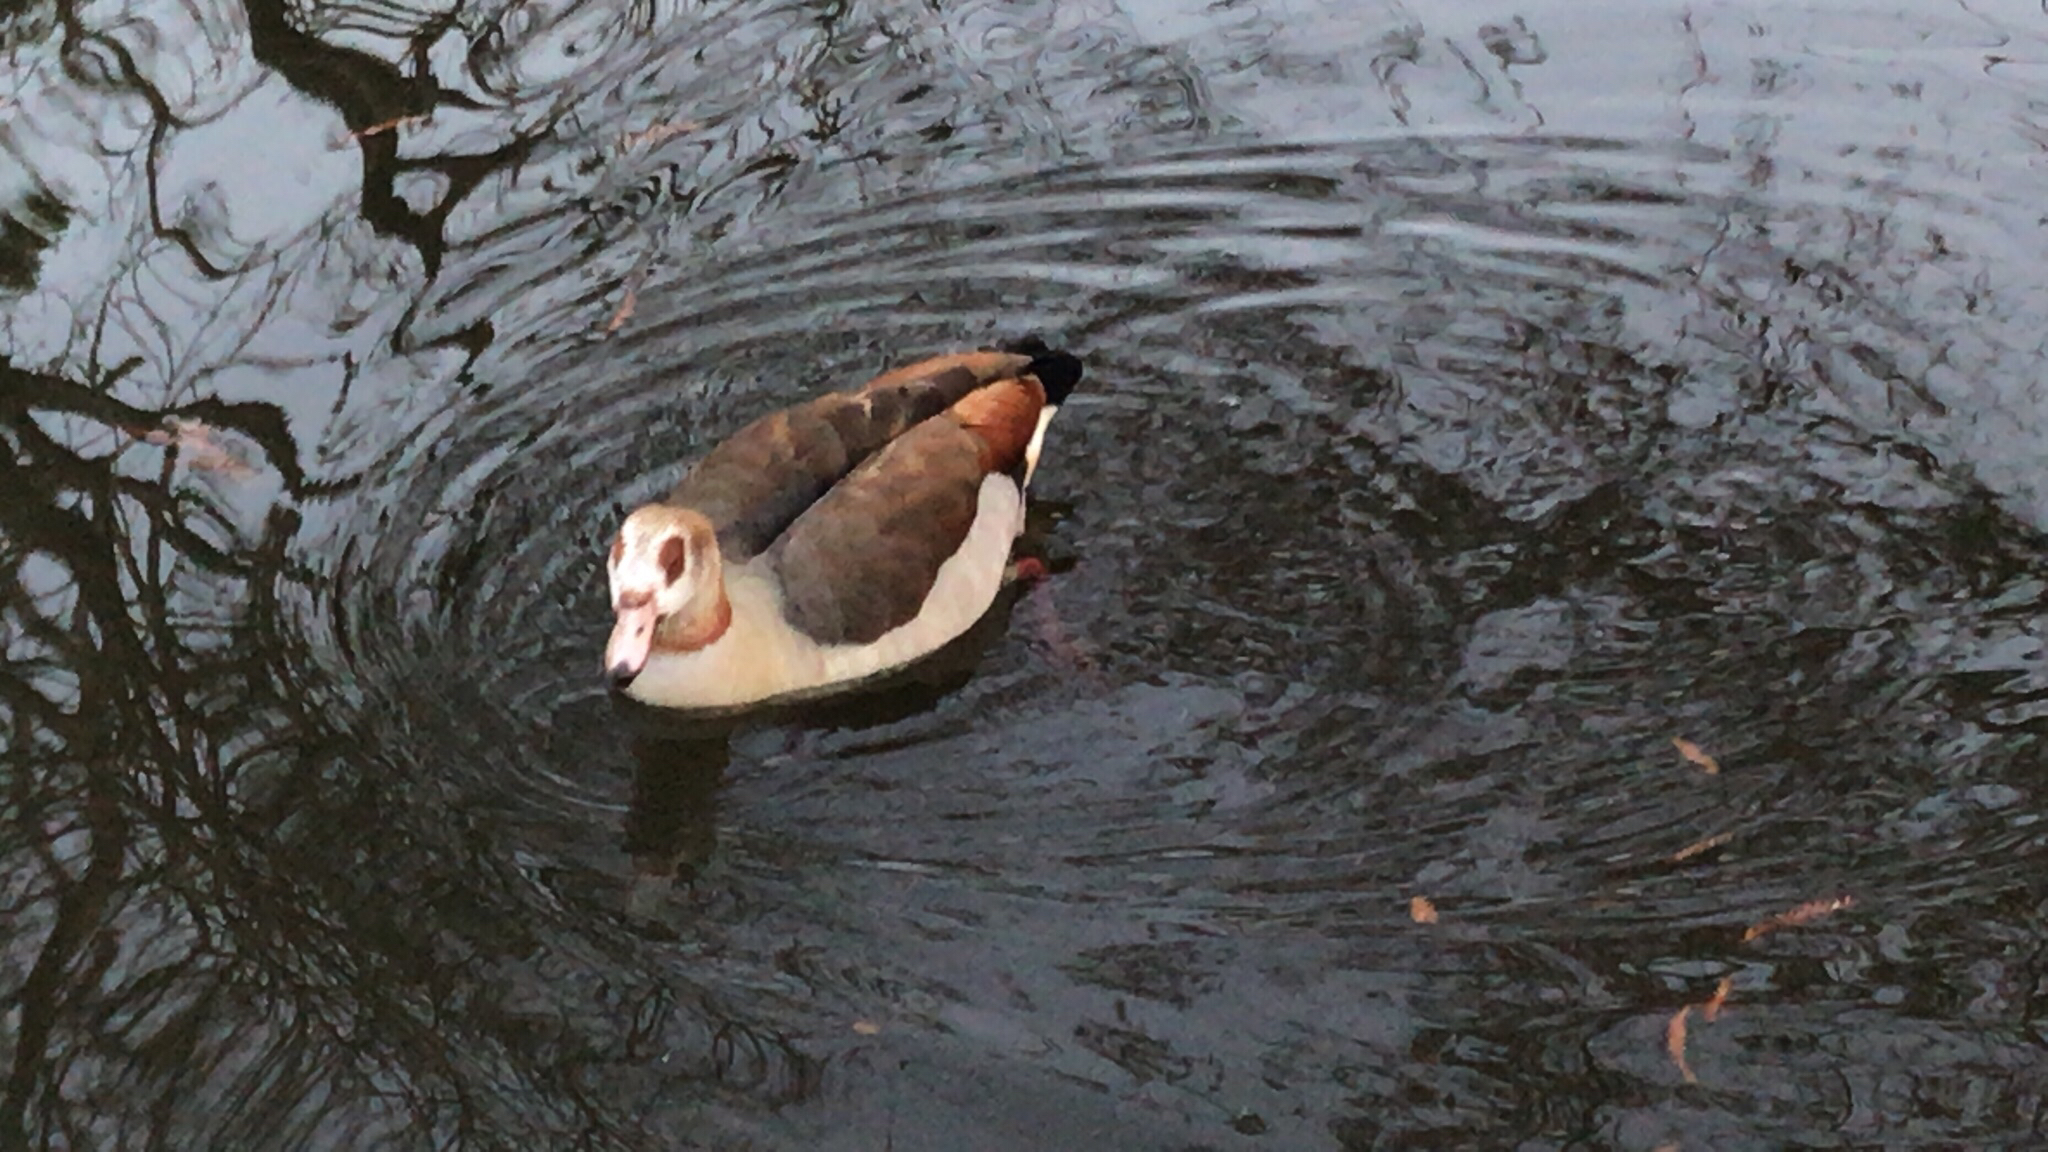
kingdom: Animalia
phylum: Chordata
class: Aves
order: Anseriformes
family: Anatidae
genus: Alopochen
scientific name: Alopochen aegyptiaca
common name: Egyptian goose
